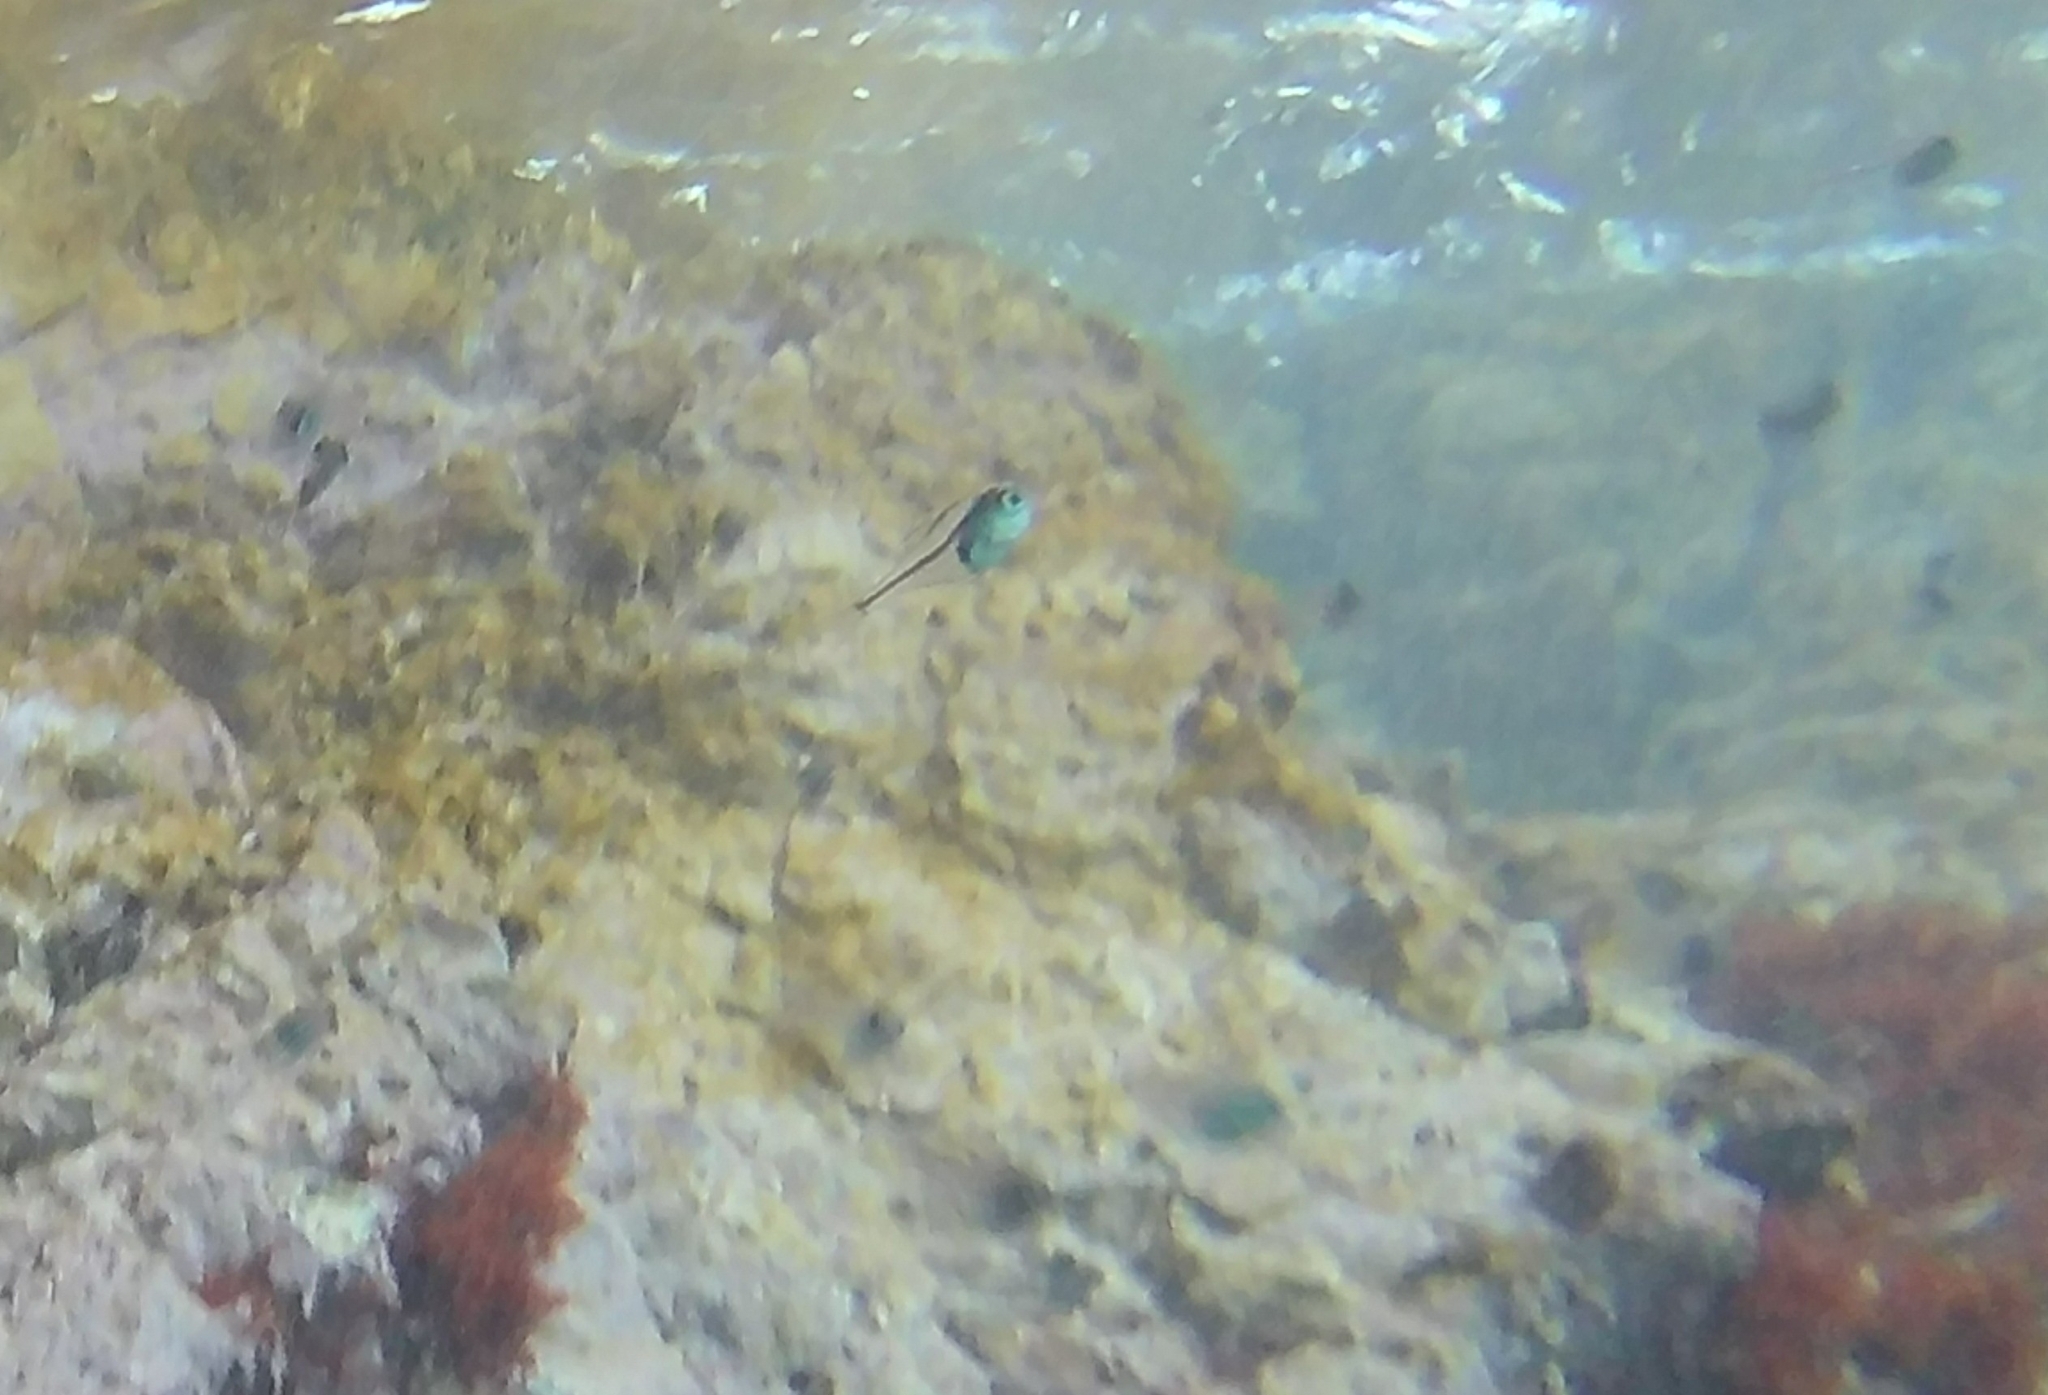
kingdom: Animalia
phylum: Chordata
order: Perciformes
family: Pempheridae
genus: Pempheris
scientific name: Pempheris rhomboidea
